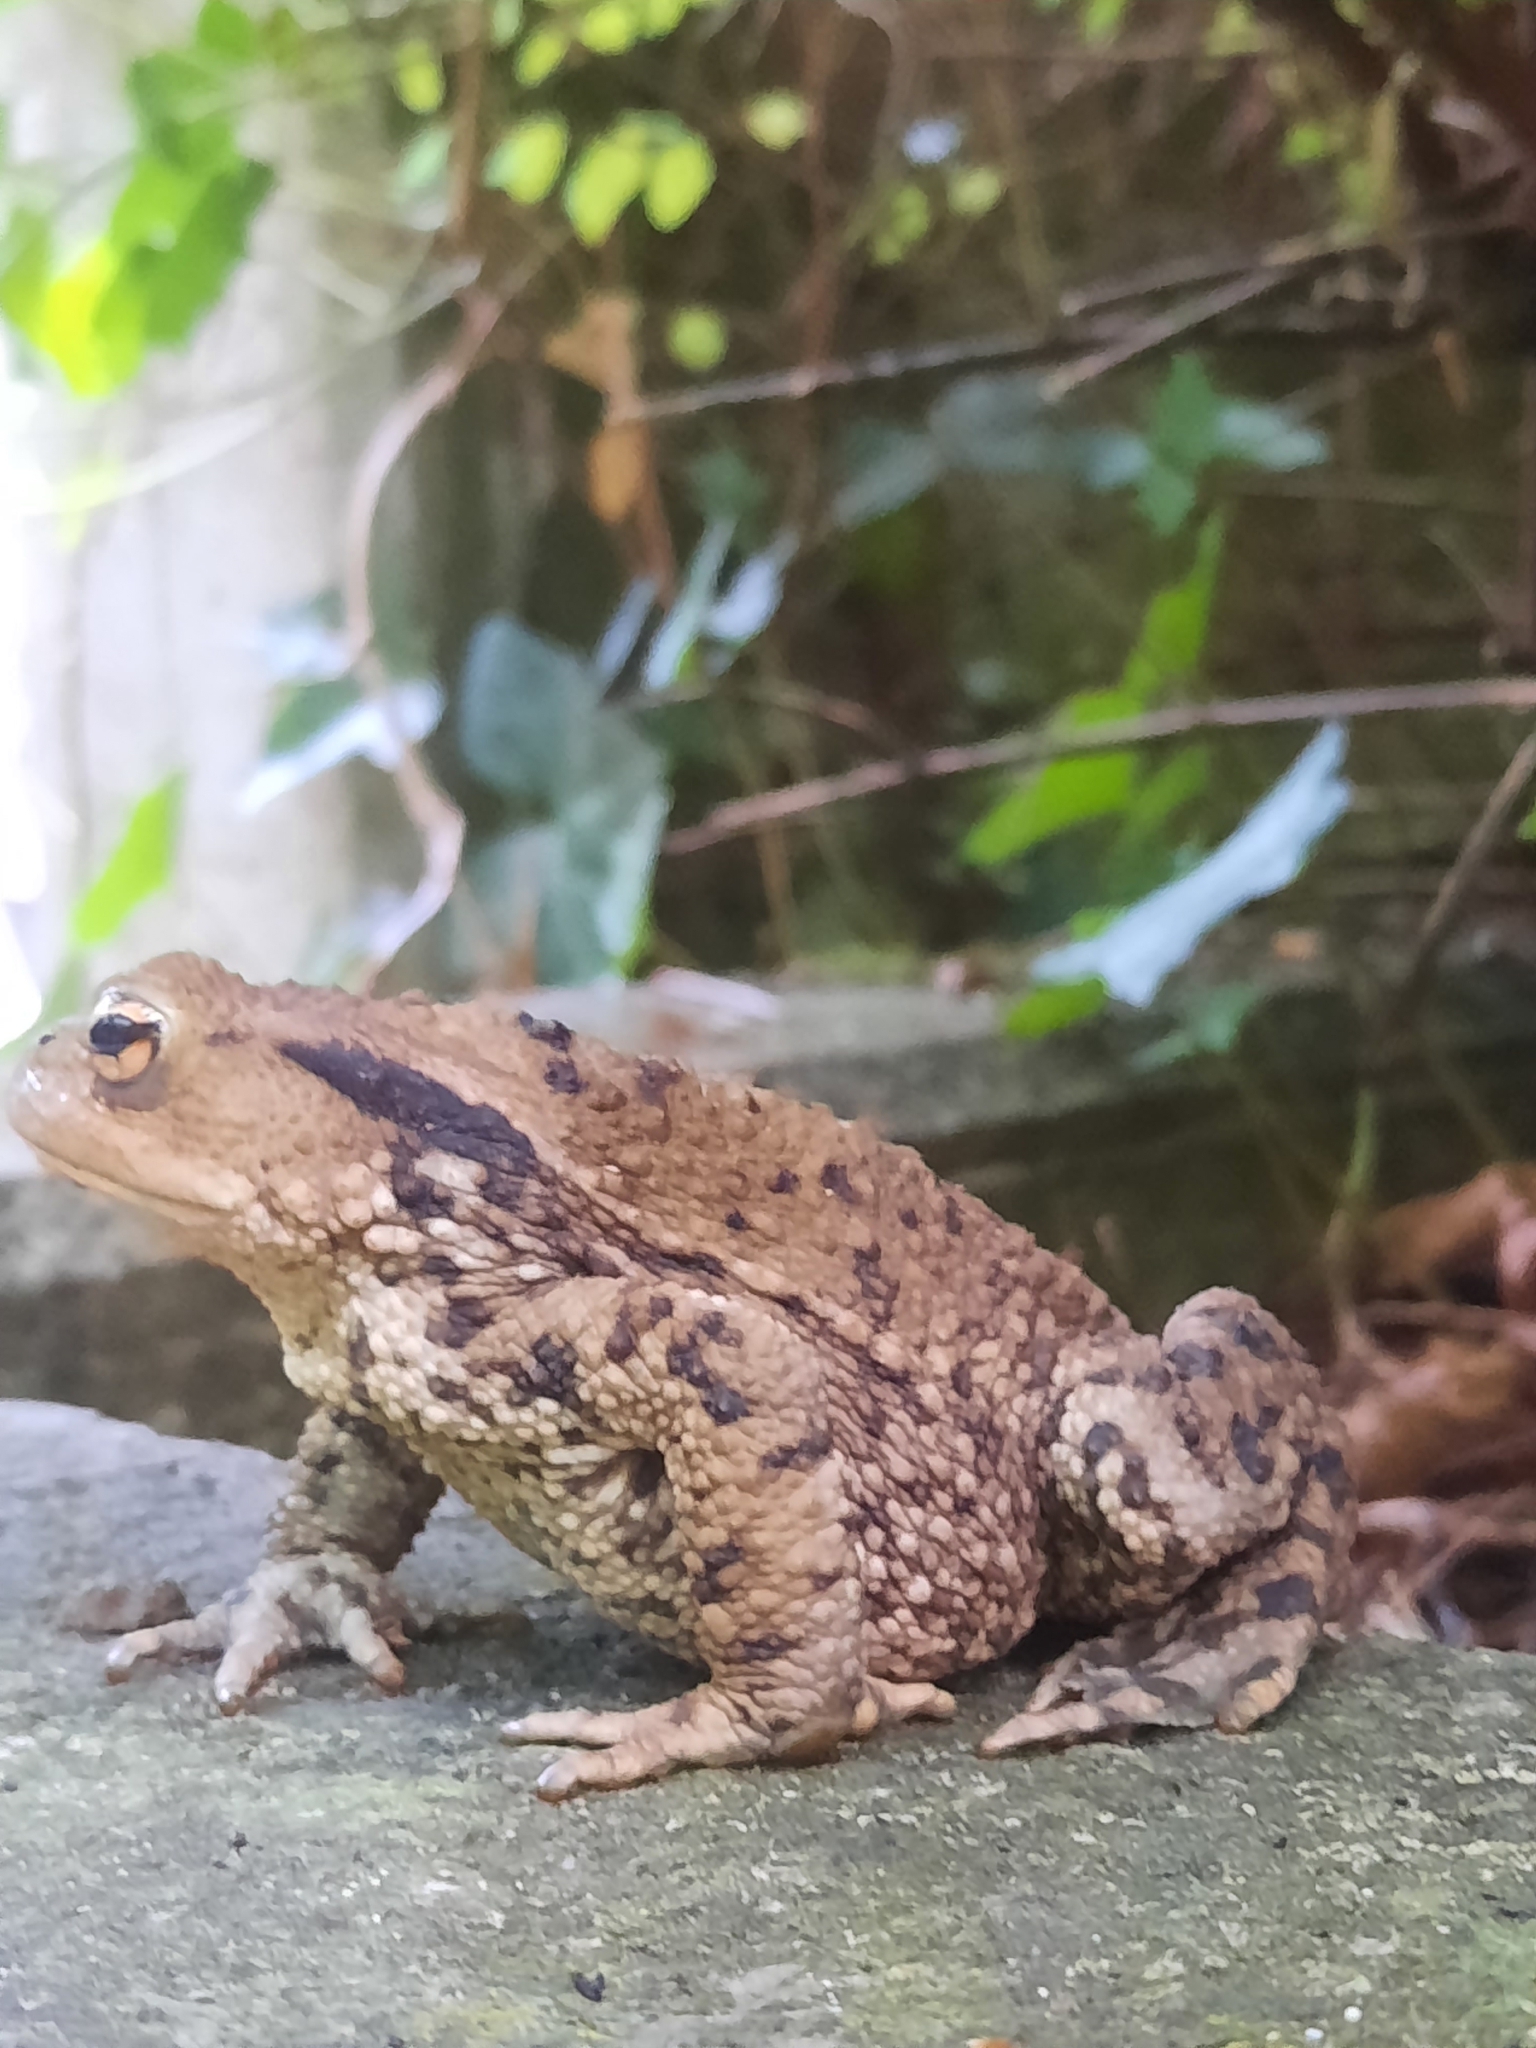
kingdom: Animalia
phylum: Chordata
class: Amphibia
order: Anura
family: Bufonidae
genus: Bufo
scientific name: Bufo bufo
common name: Common toad
